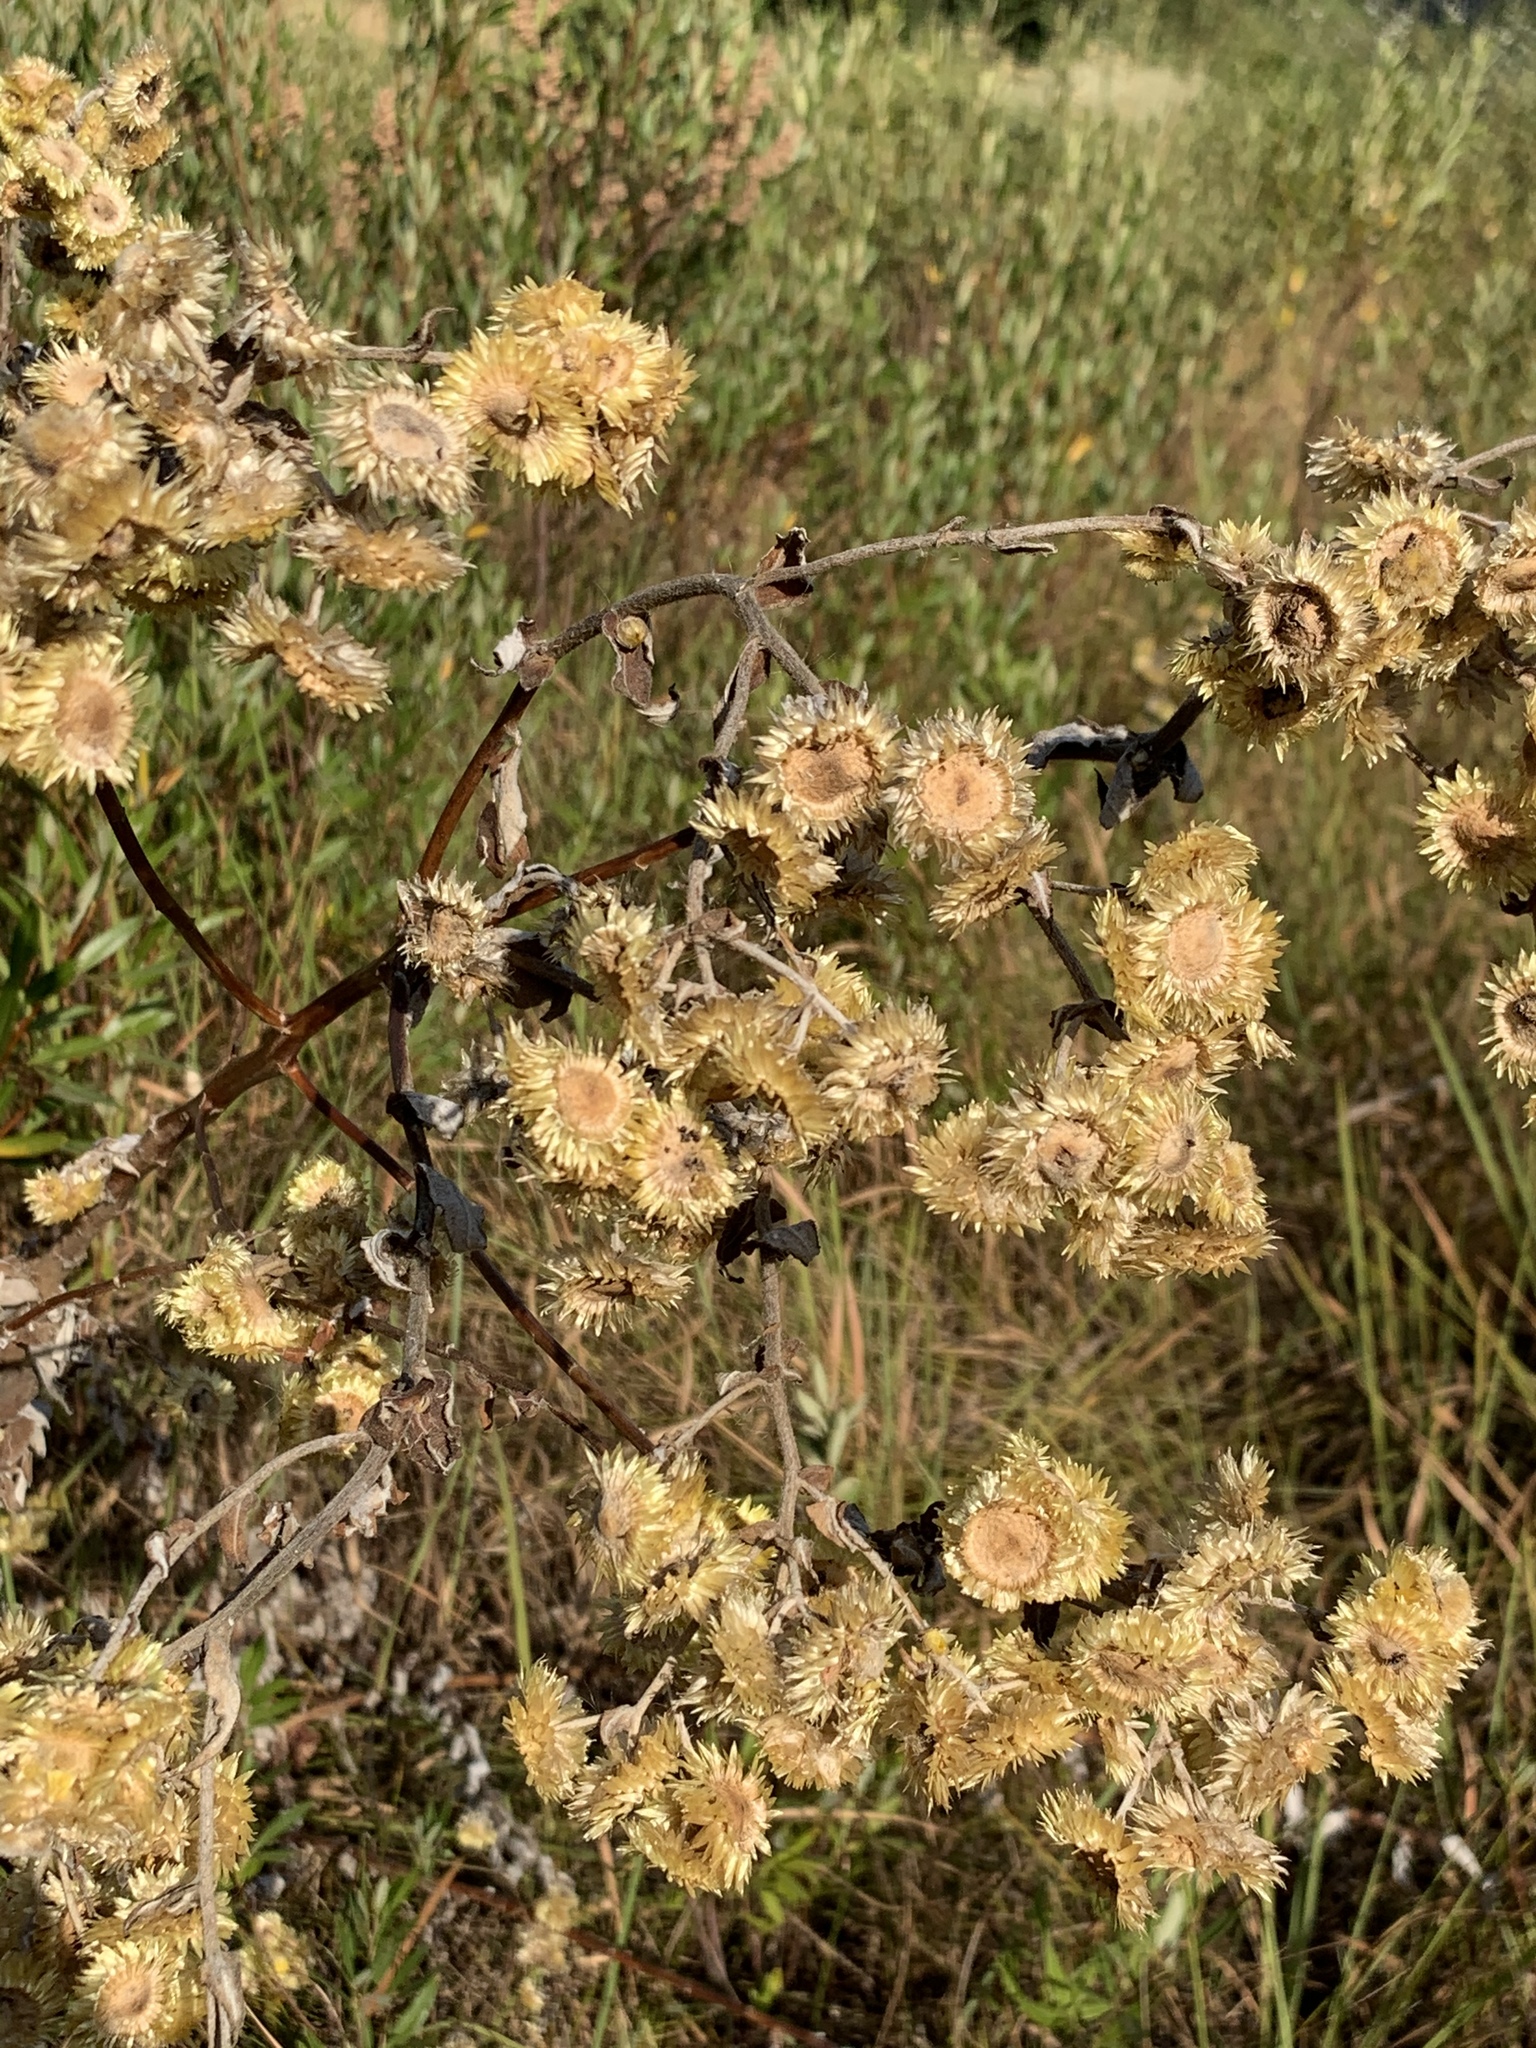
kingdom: Plantae
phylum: Tracheophyta
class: Magnoliopsida
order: Asterales
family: Asteraceae
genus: Helichrysum
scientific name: Helichrysum foetidum
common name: Stinking everlasting
